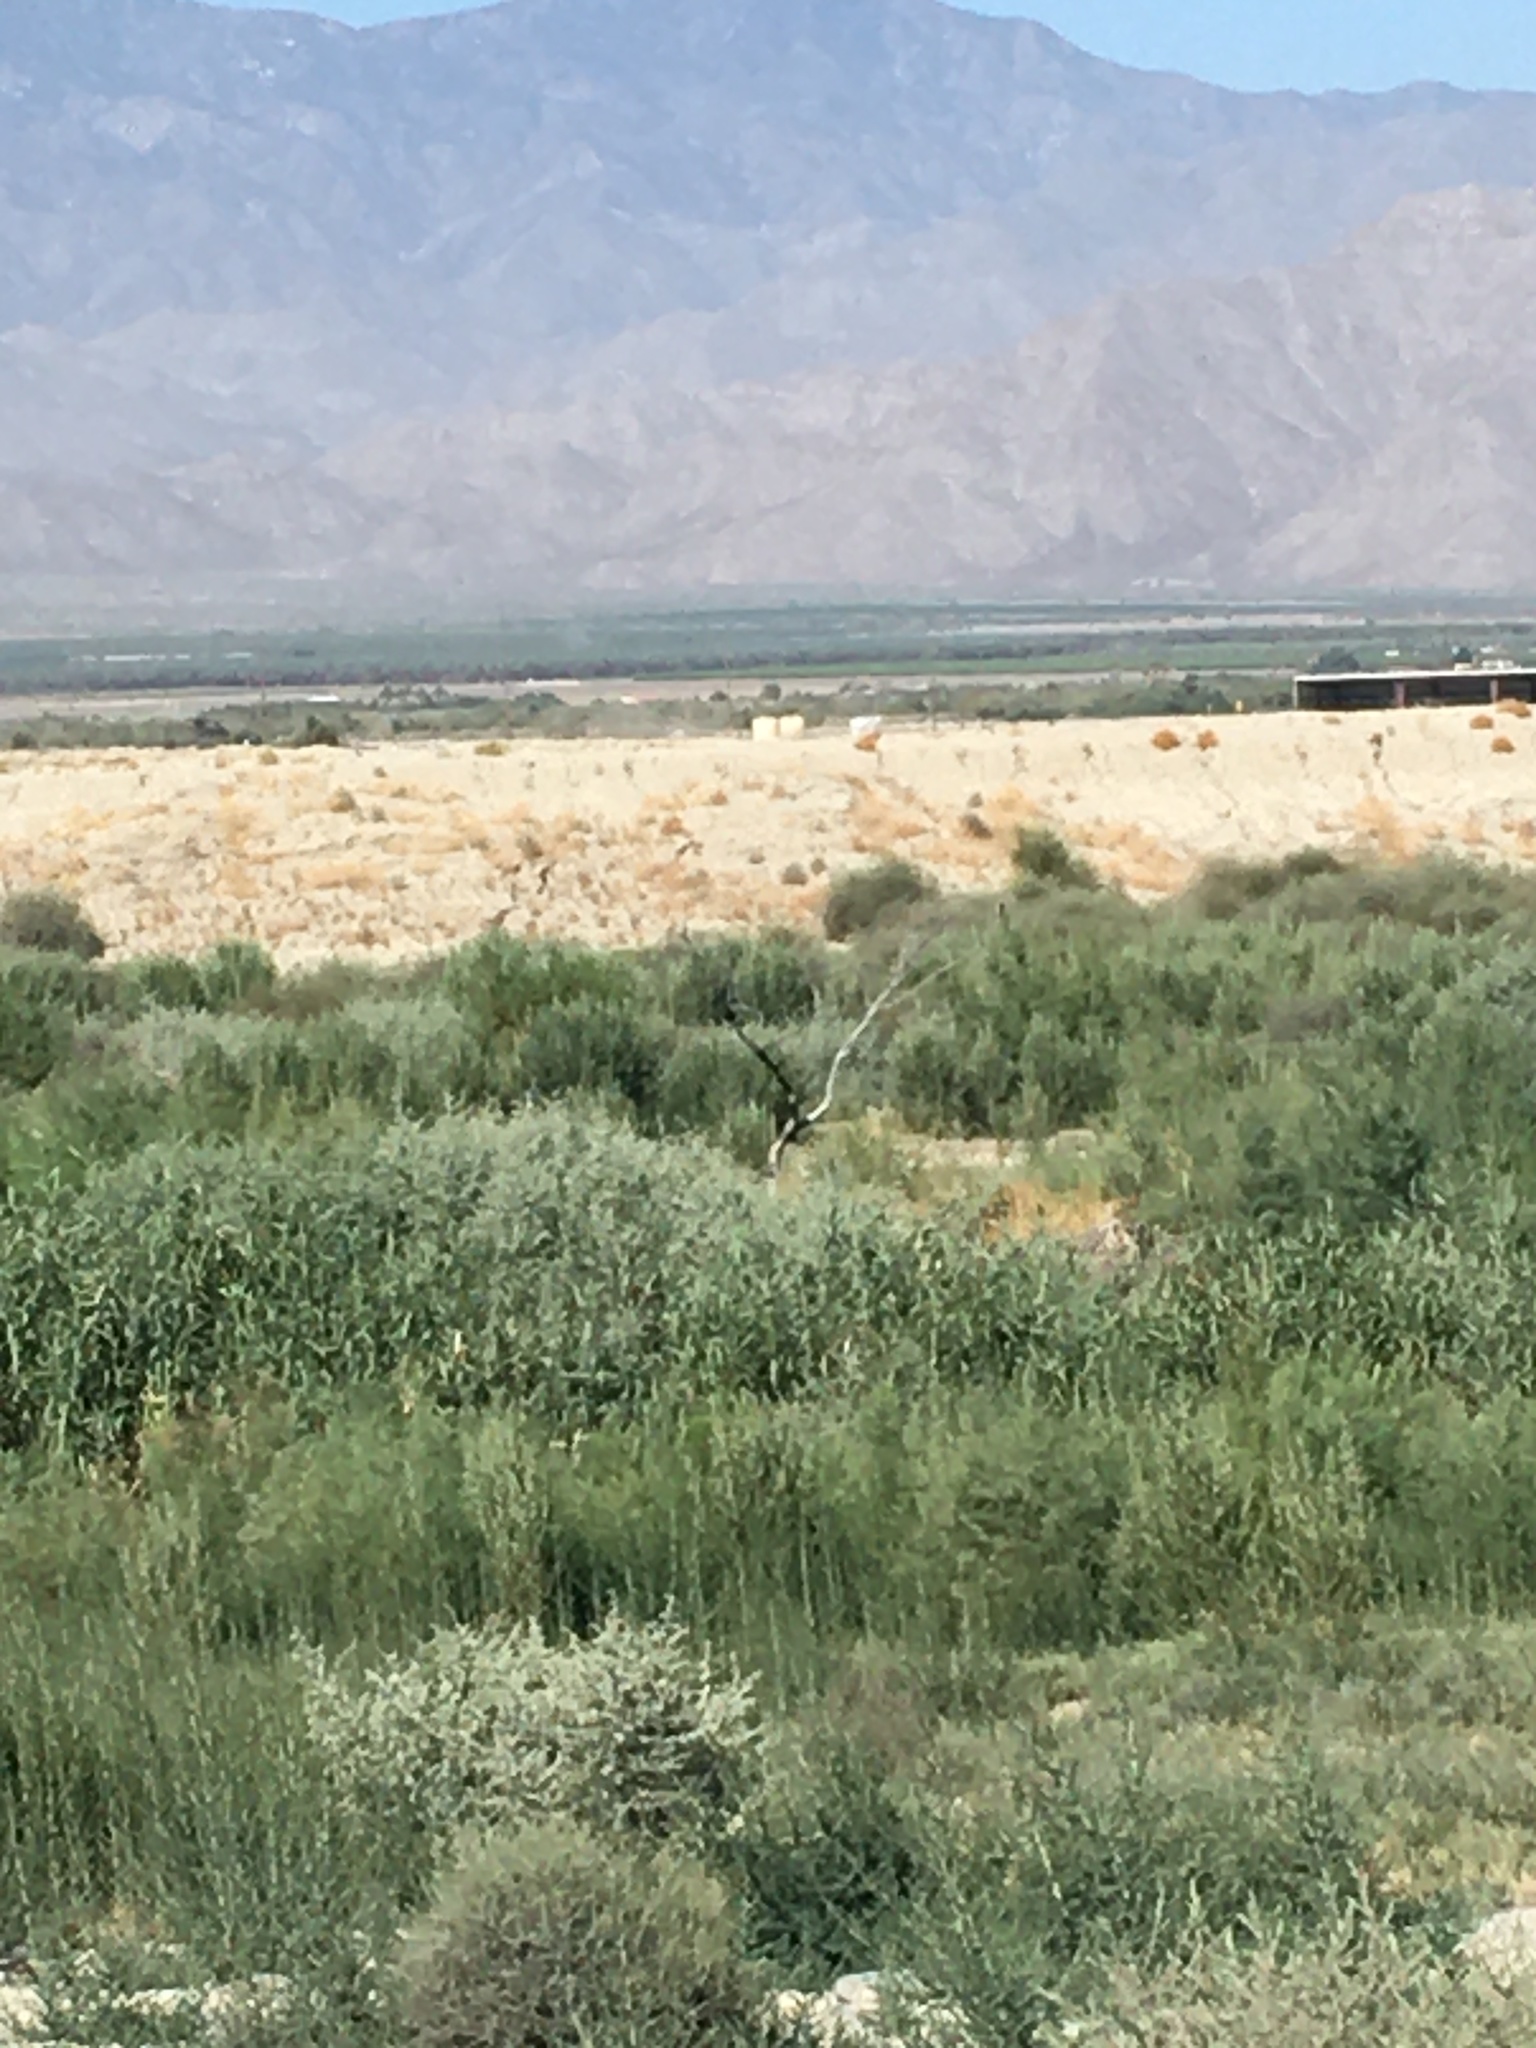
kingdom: Animalia
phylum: Chordata
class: Aves
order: Passeriformes
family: Cardinalidae
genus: Passerina
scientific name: Passerina caerulea
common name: Blue grosbeak
